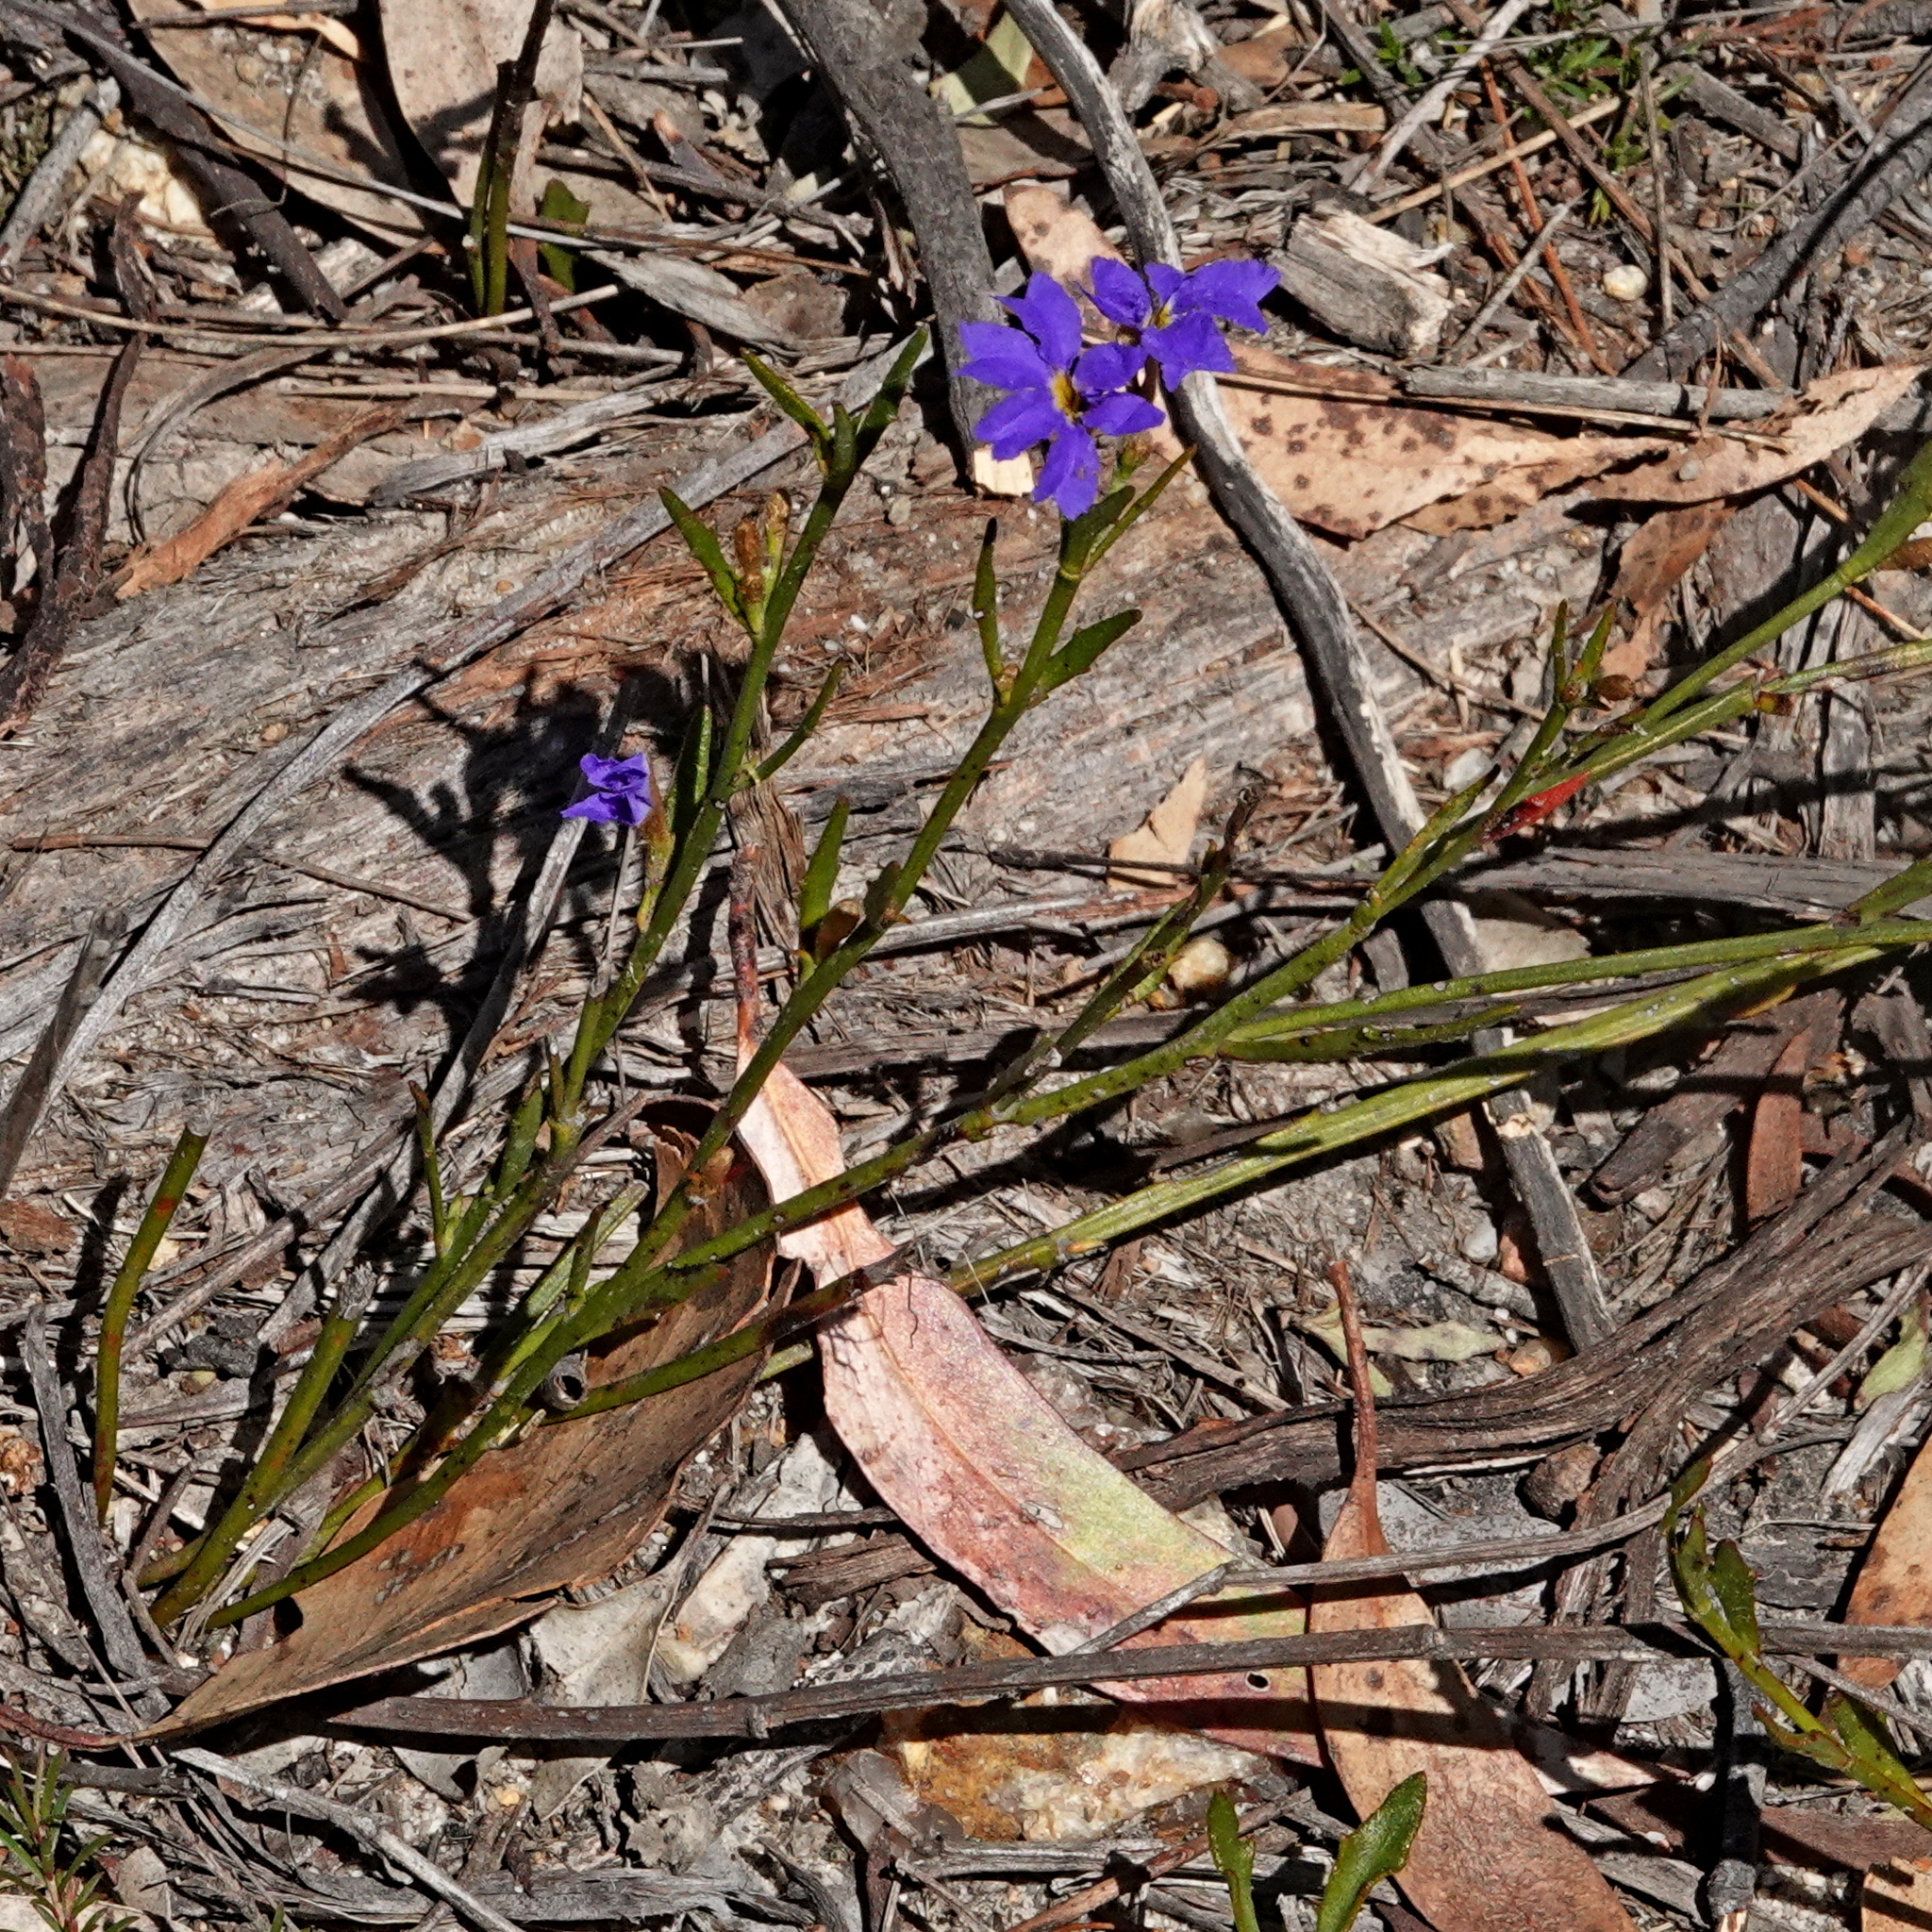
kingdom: Plantae
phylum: Tracheophyta
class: Magnoliopsida
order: Asterales
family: Goodeniaceae
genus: Dampiera
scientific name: Dampiera stricta
